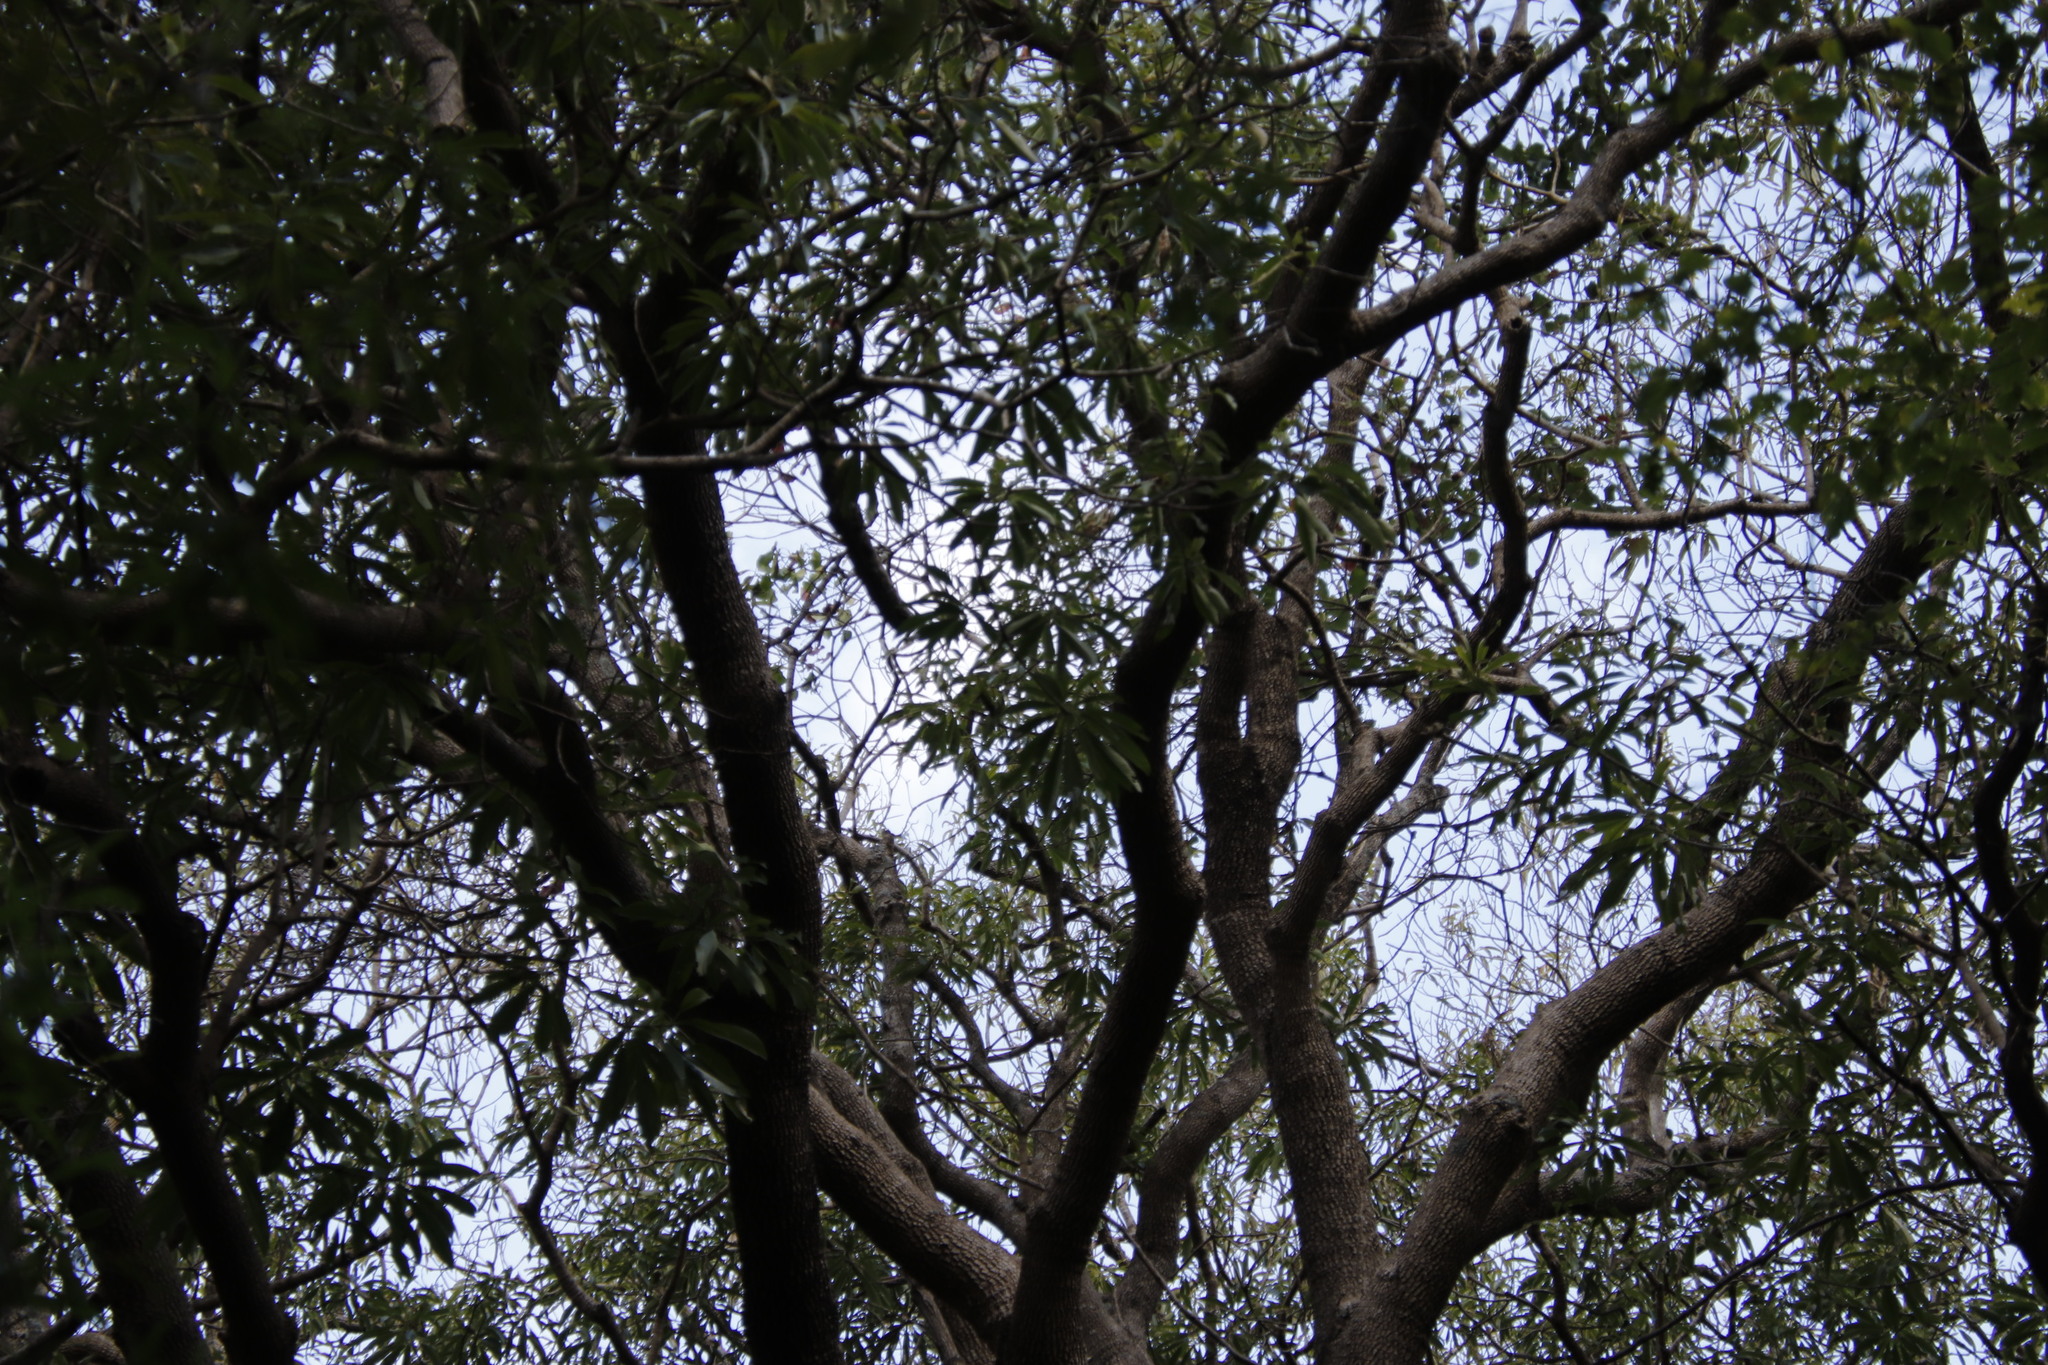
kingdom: Plantae
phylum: Tracheophyta
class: Magnoliopsida
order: Gentianales
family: Apocynaceae
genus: Rauvolfia
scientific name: Rauvolfia caffra
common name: Quininetree
